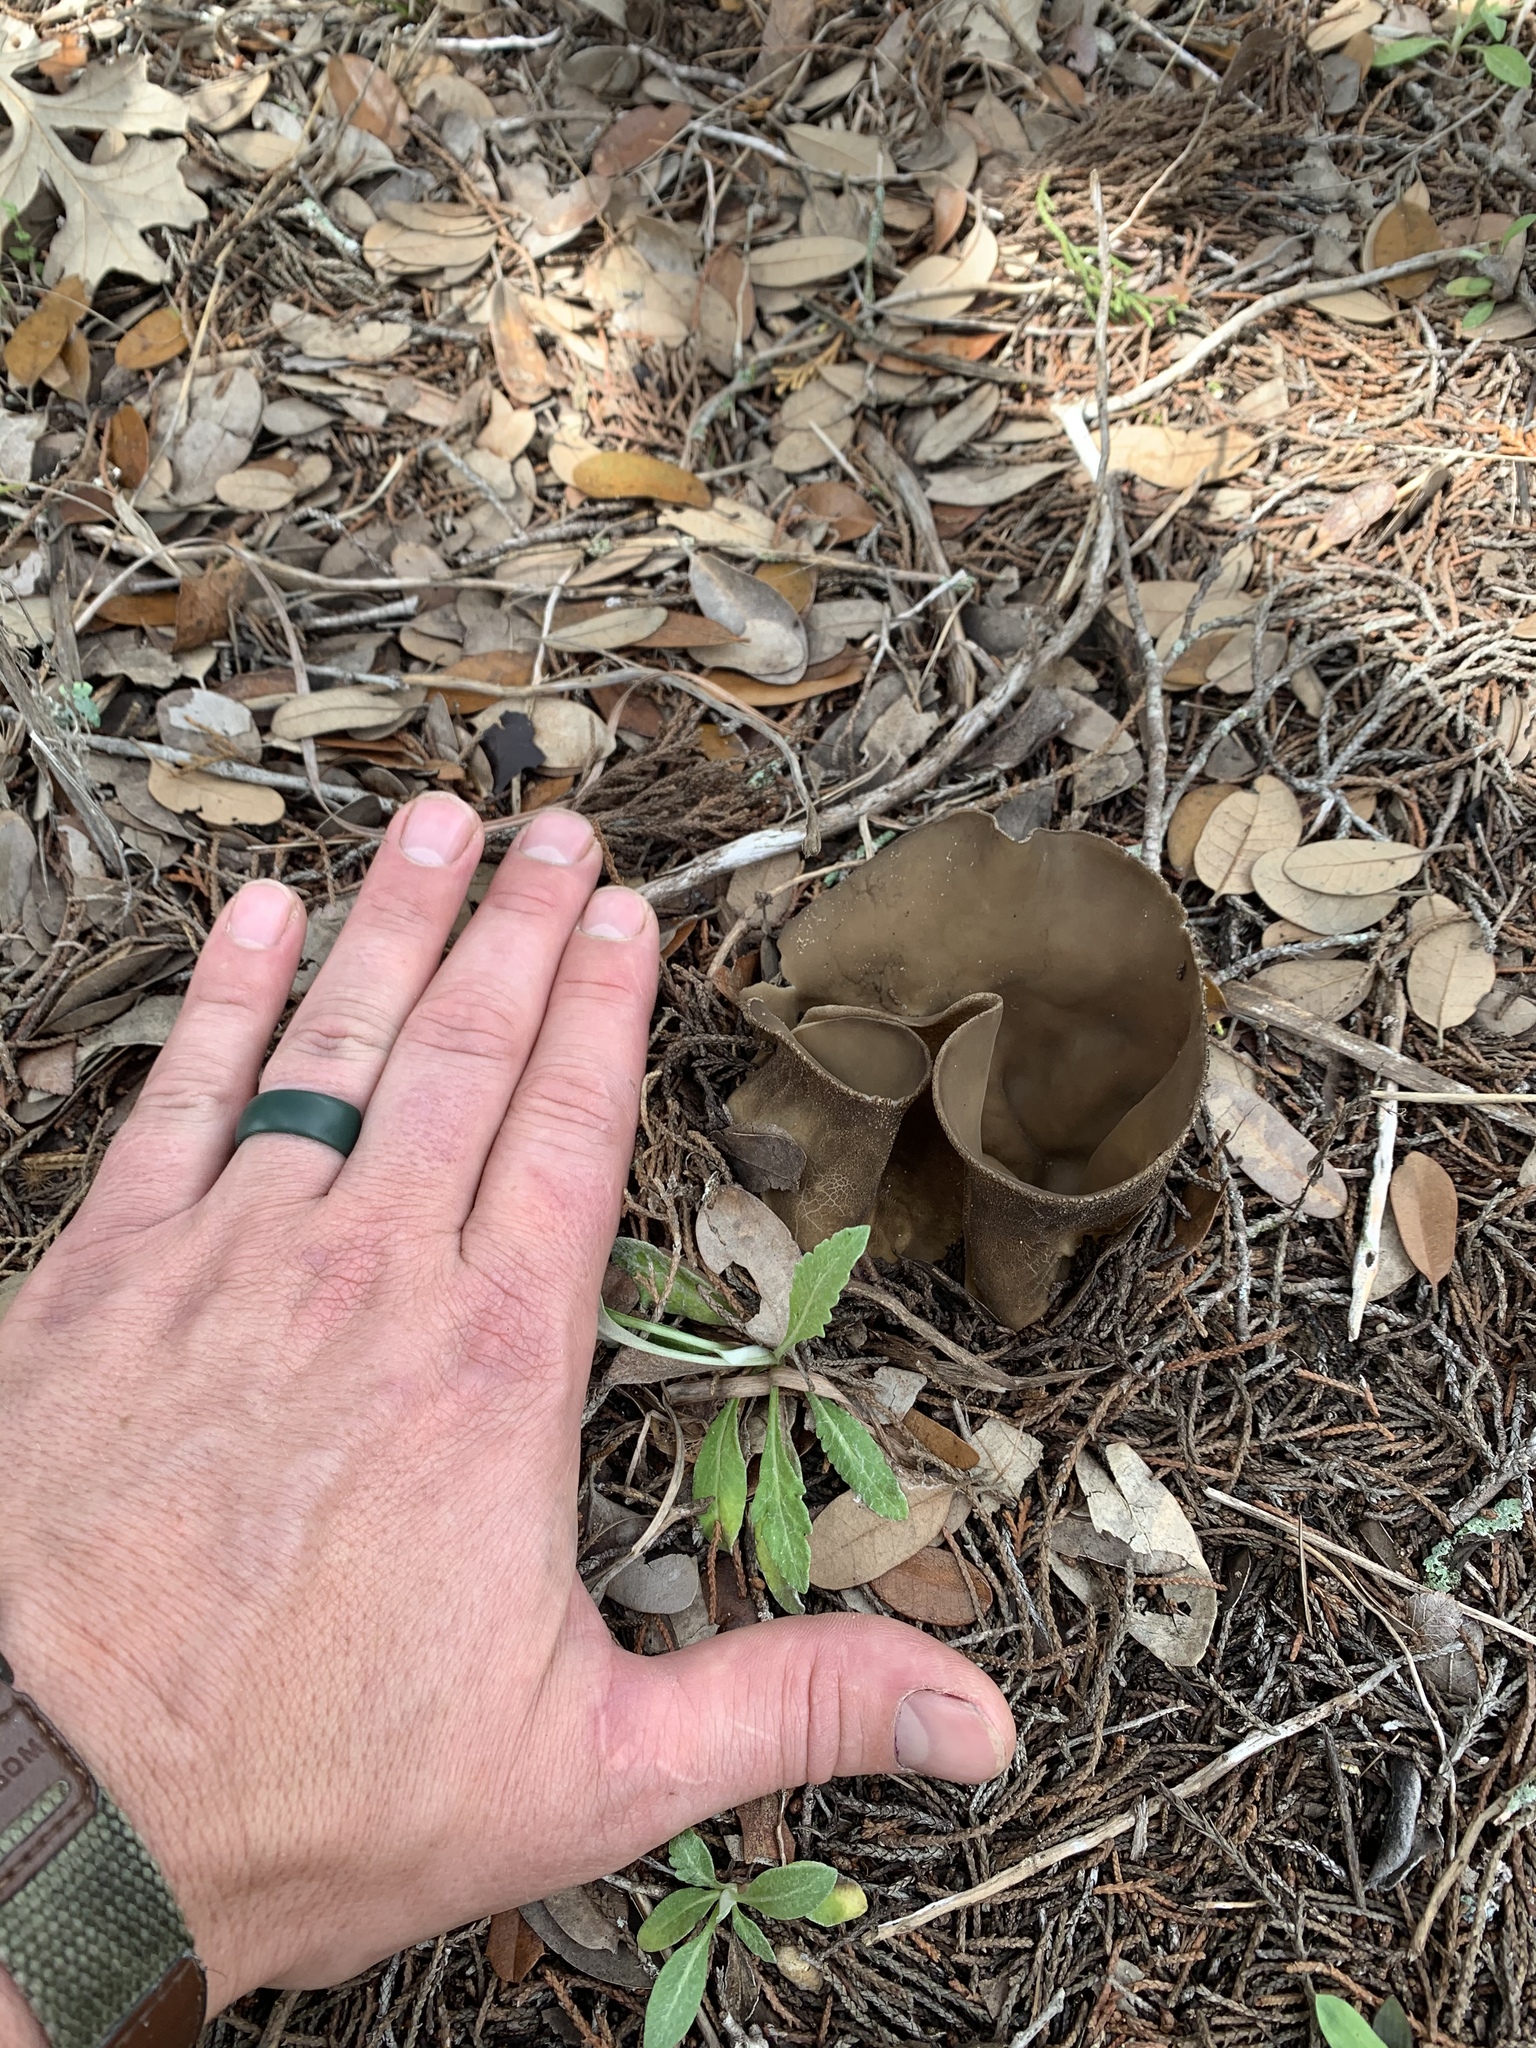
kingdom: Fungi
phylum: Ascomycota
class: Pezizomycetes
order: Pezizales
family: Helvellaceae
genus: Helvella
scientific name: Helvella acetabulum
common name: Vinegar cup
